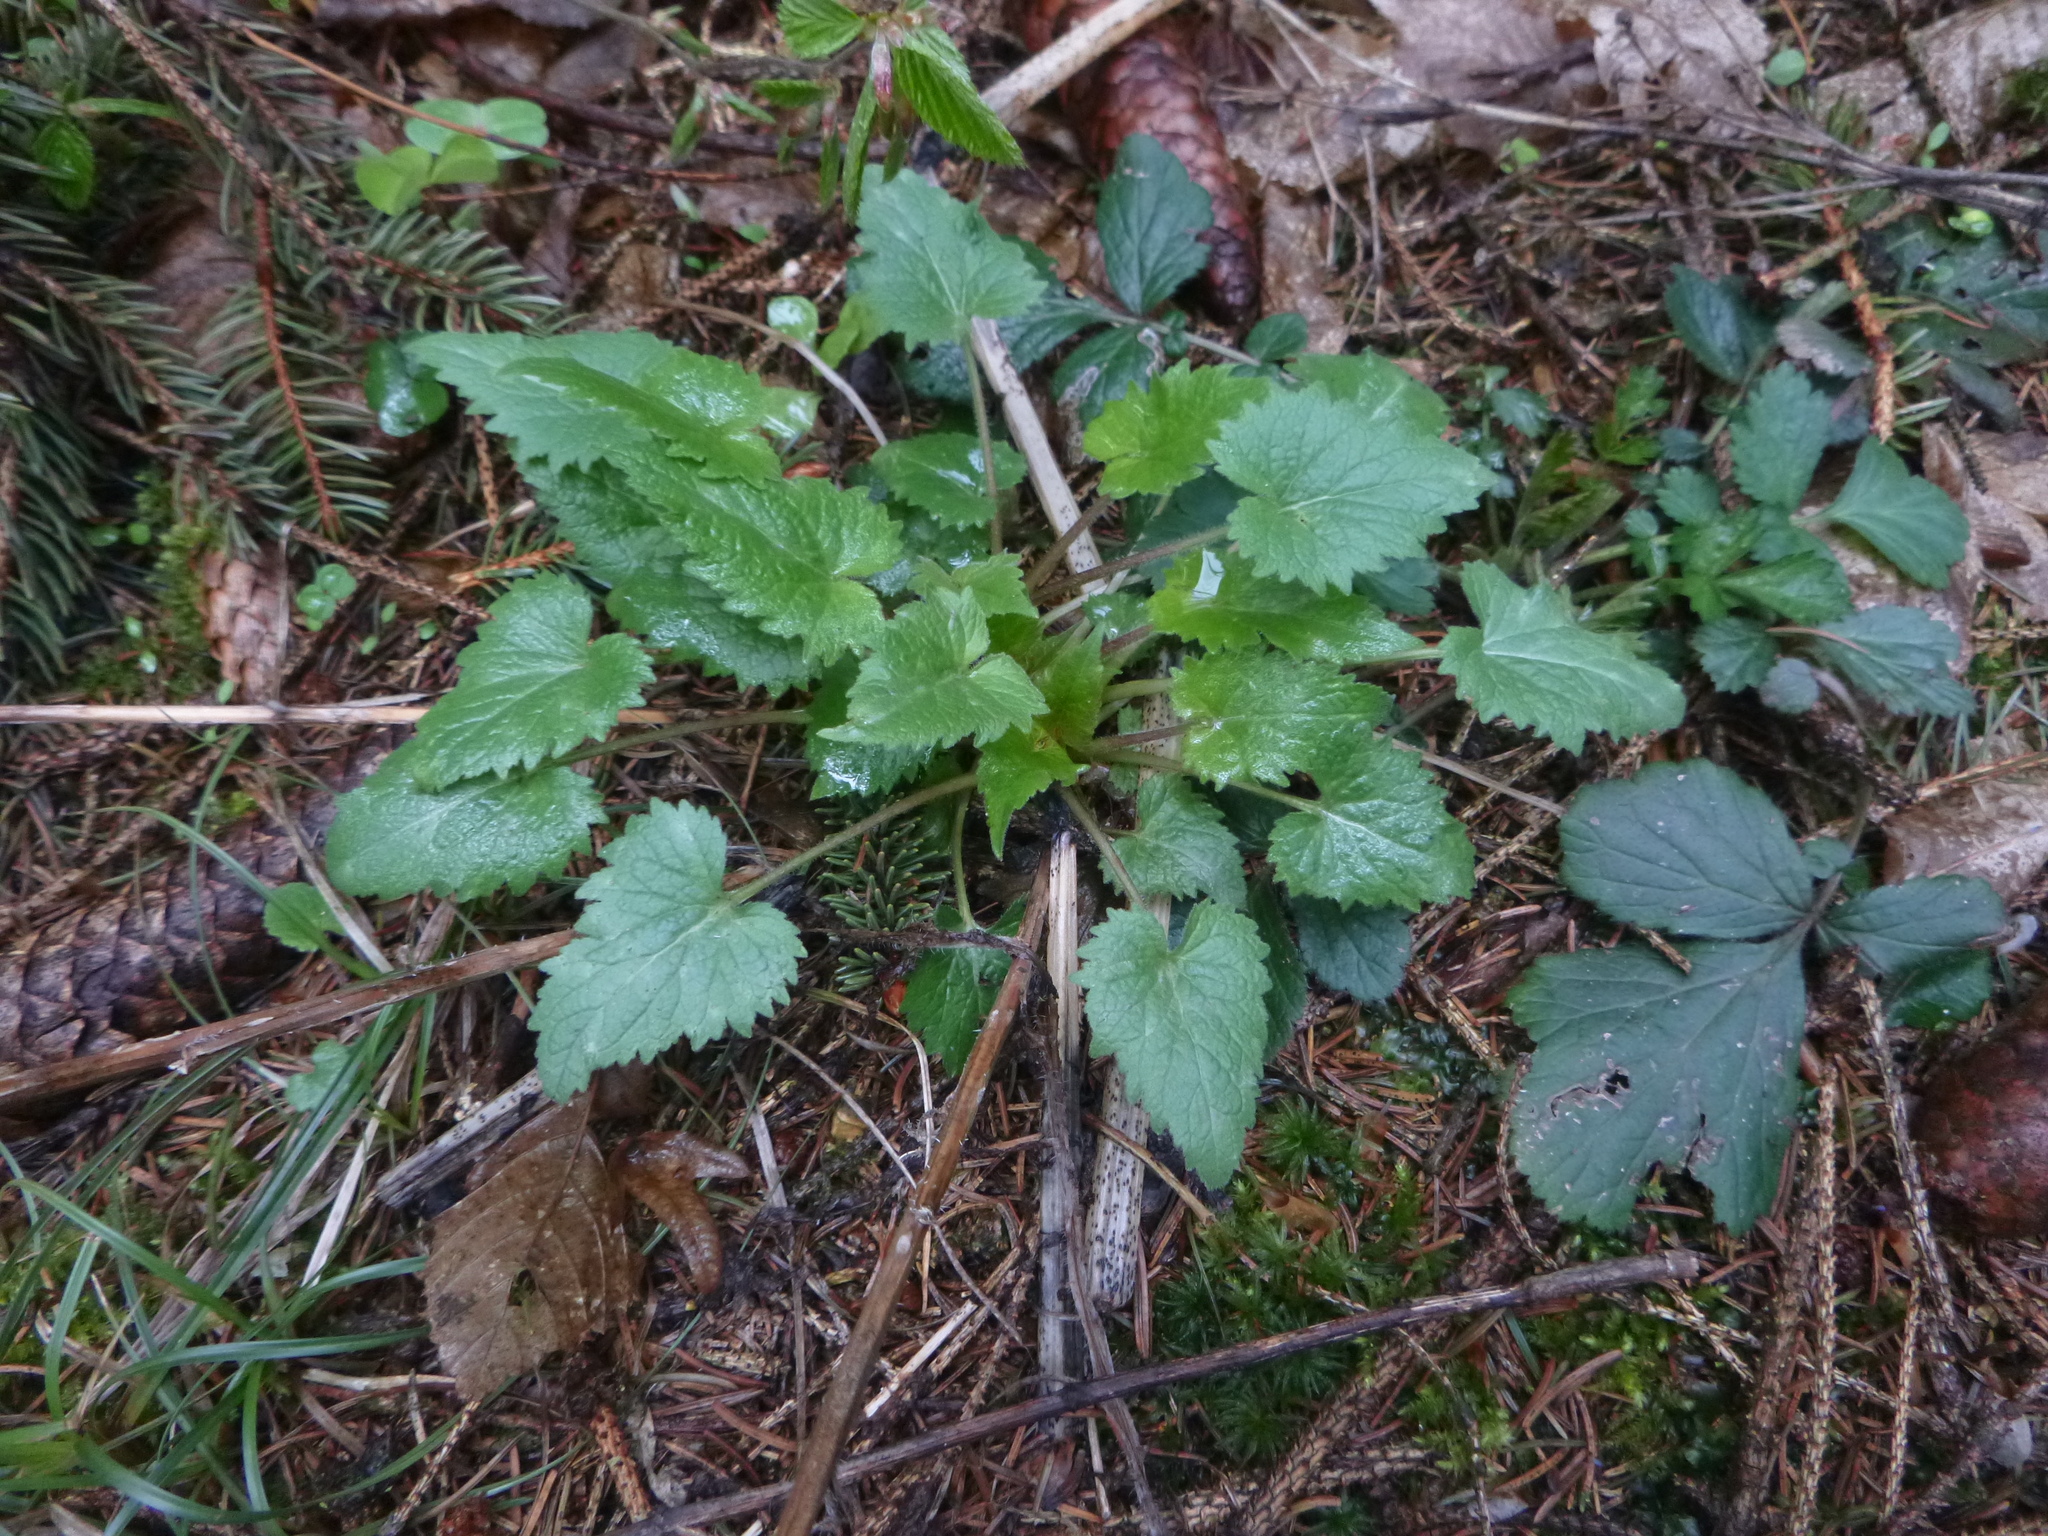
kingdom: Plantae
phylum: Tracheophyta
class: Magnoliopsida
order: Asterales
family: Campanulaceae
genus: Campanula
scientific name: Campanula trachelium
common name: Nettle-leaved bellflower
